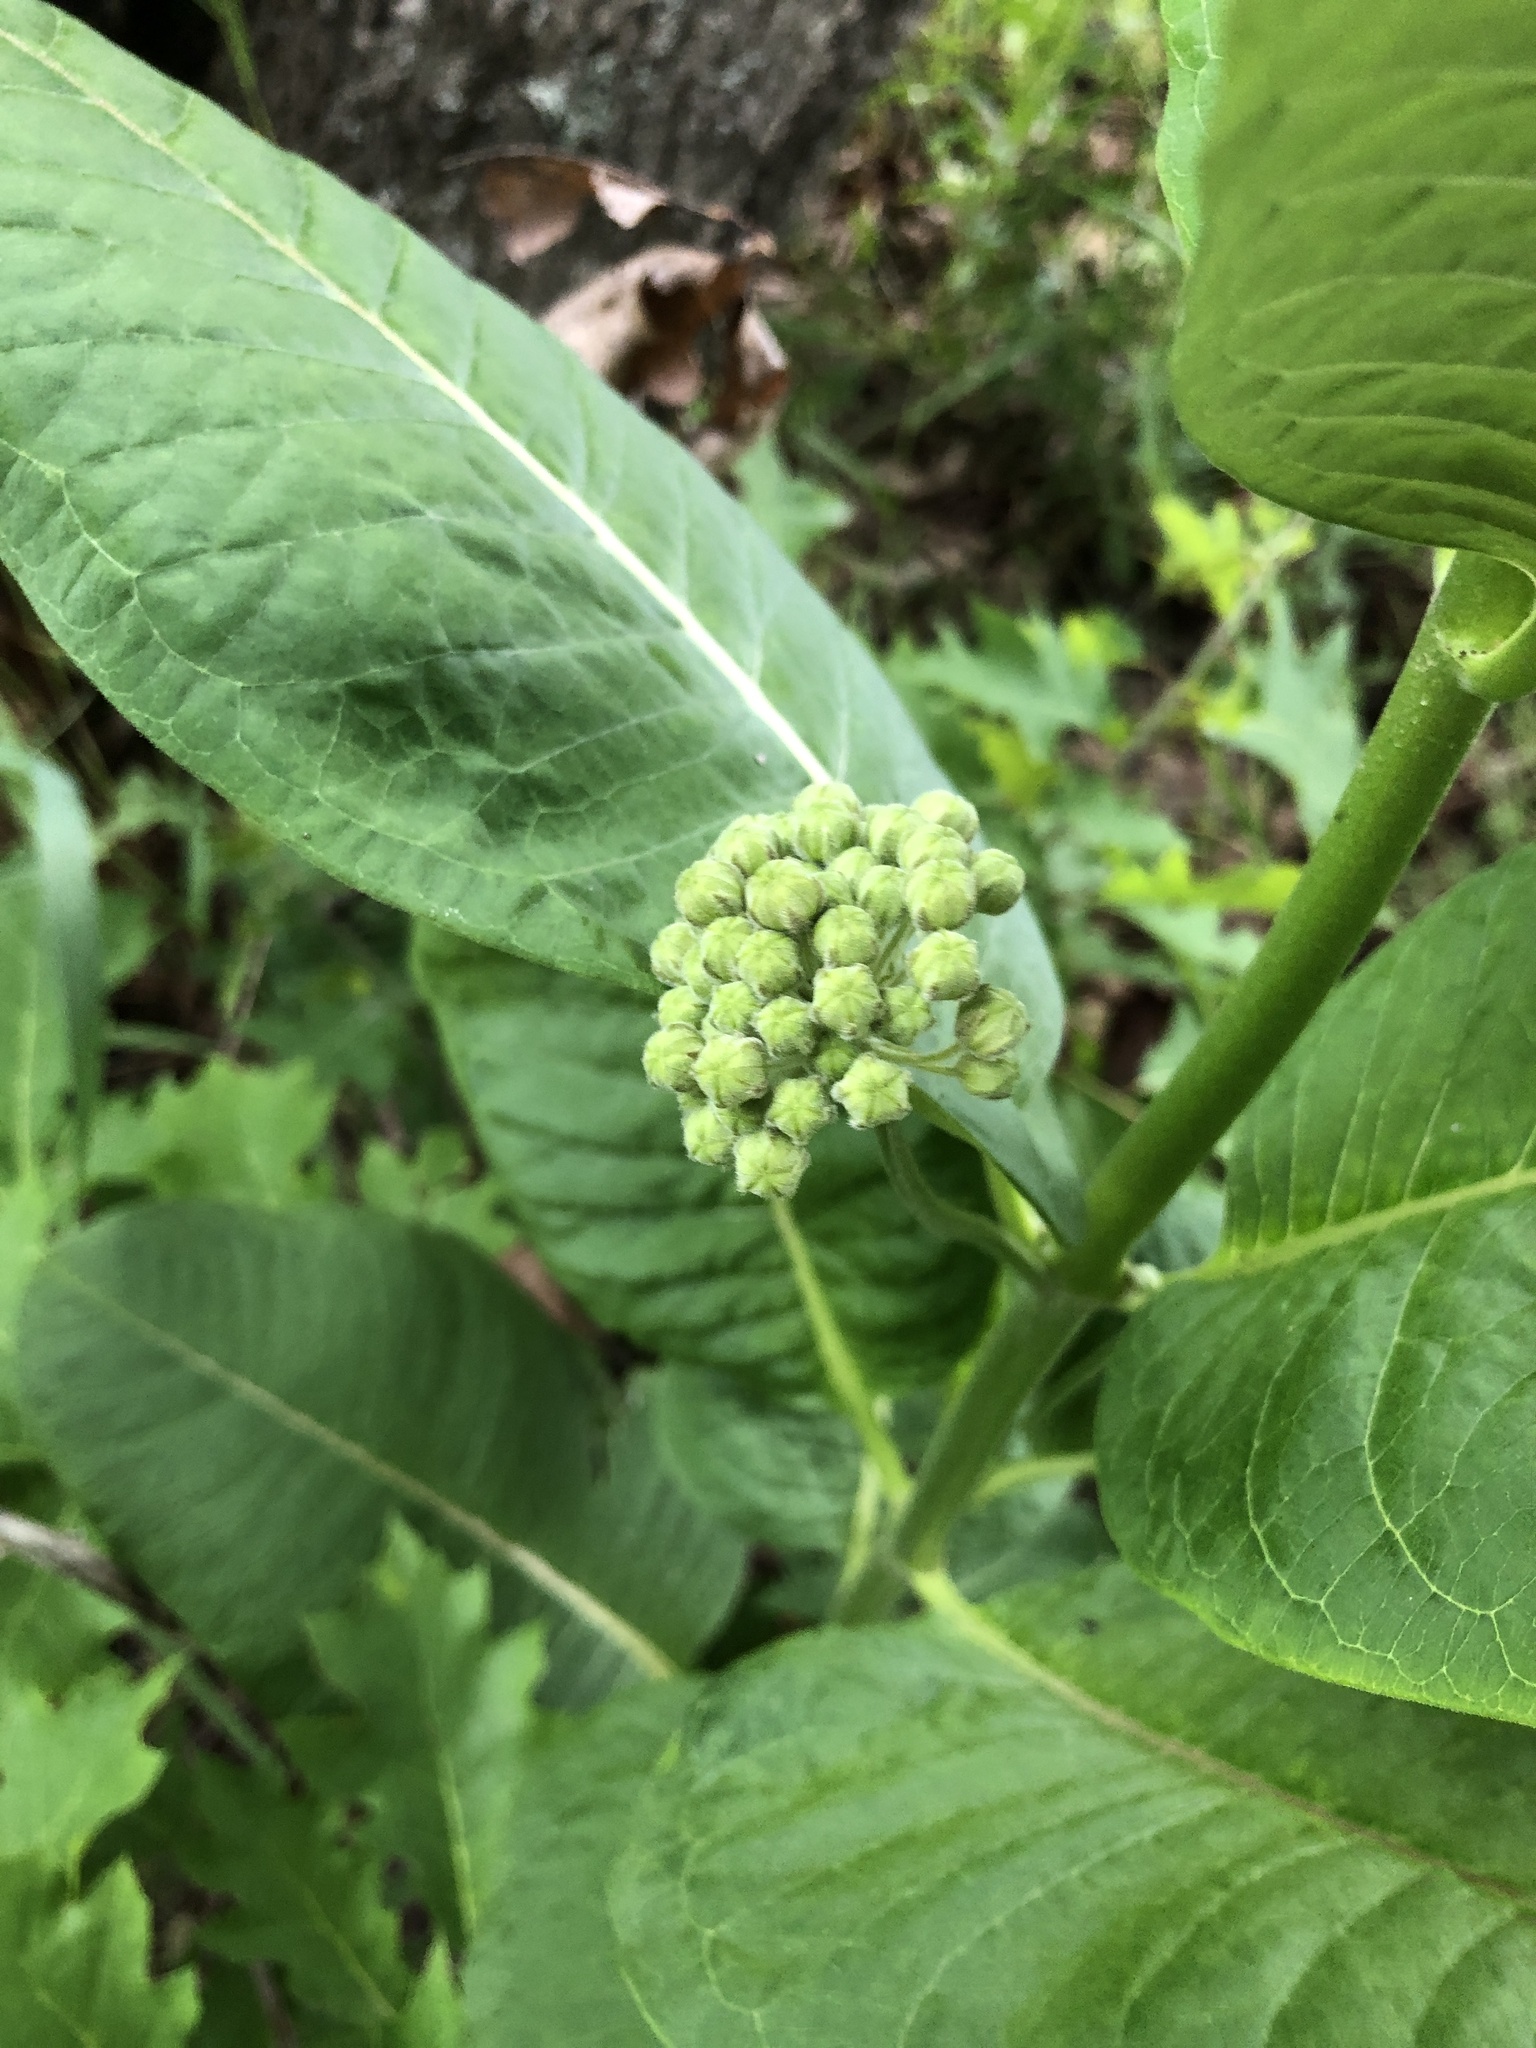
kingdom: Plantae
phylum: Tracheophyta
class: Magnoliopsida
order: Gentianales
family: Apocynaceae
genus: Asclepias
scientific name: Asclepias syriaca
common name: Common milkweed
